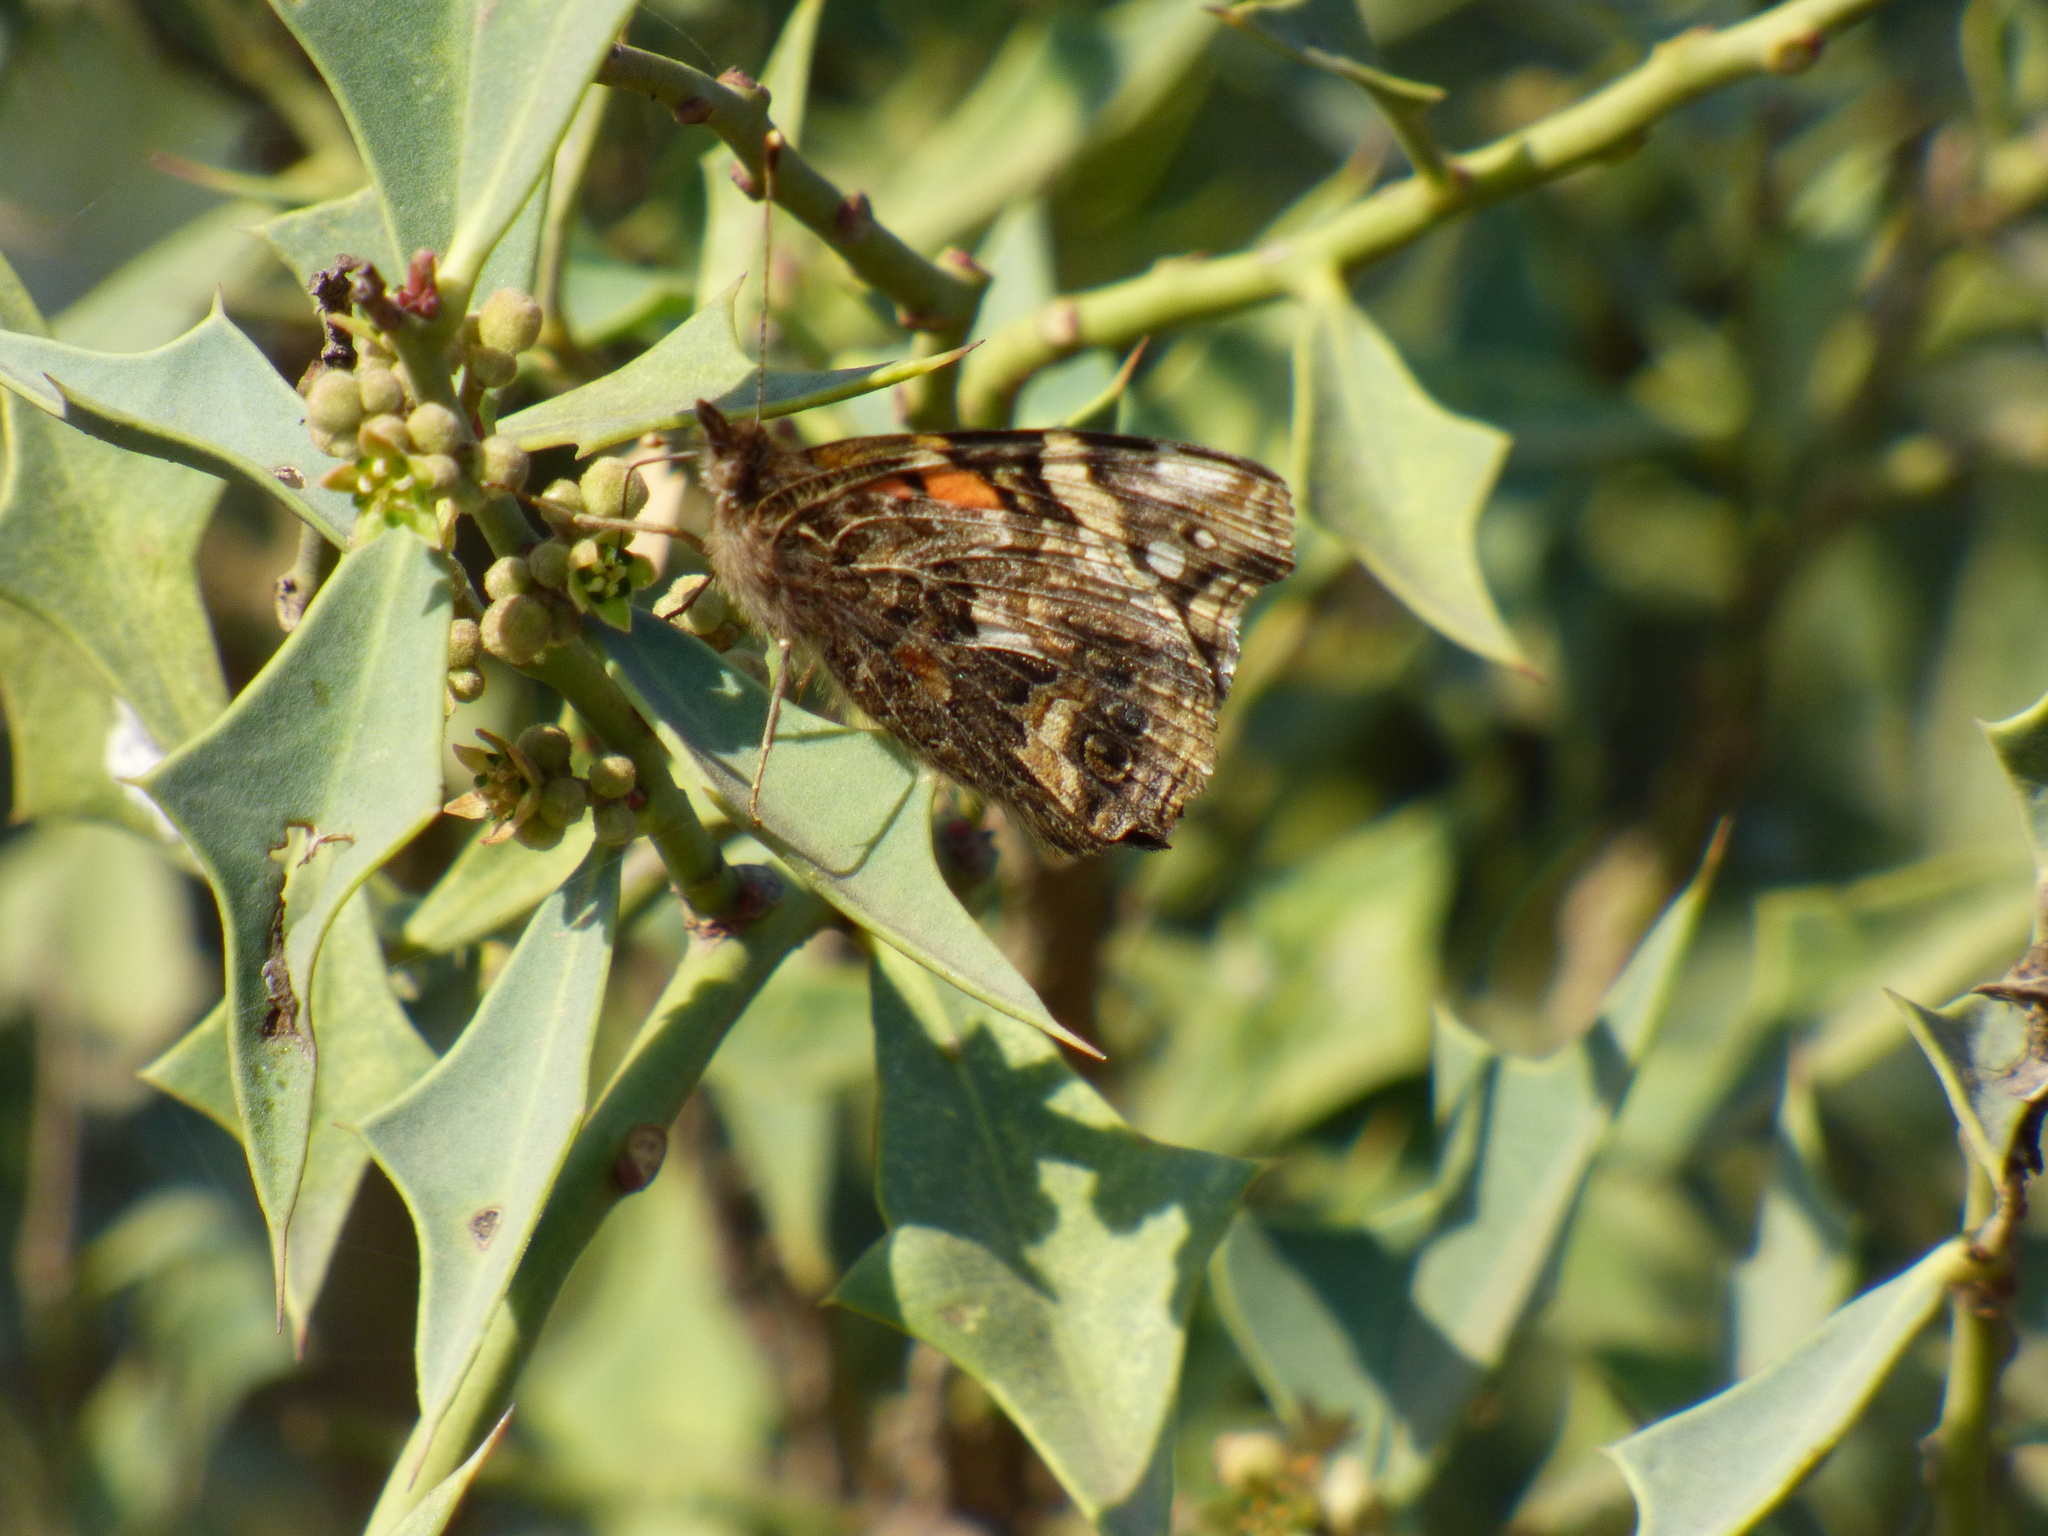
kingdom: Animalia
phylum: Arthropoda
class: Insecta
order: Lepidoptera
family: Nymphalidae
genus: Vanessa
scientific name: Vanessa carye
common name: Subtropical lady
